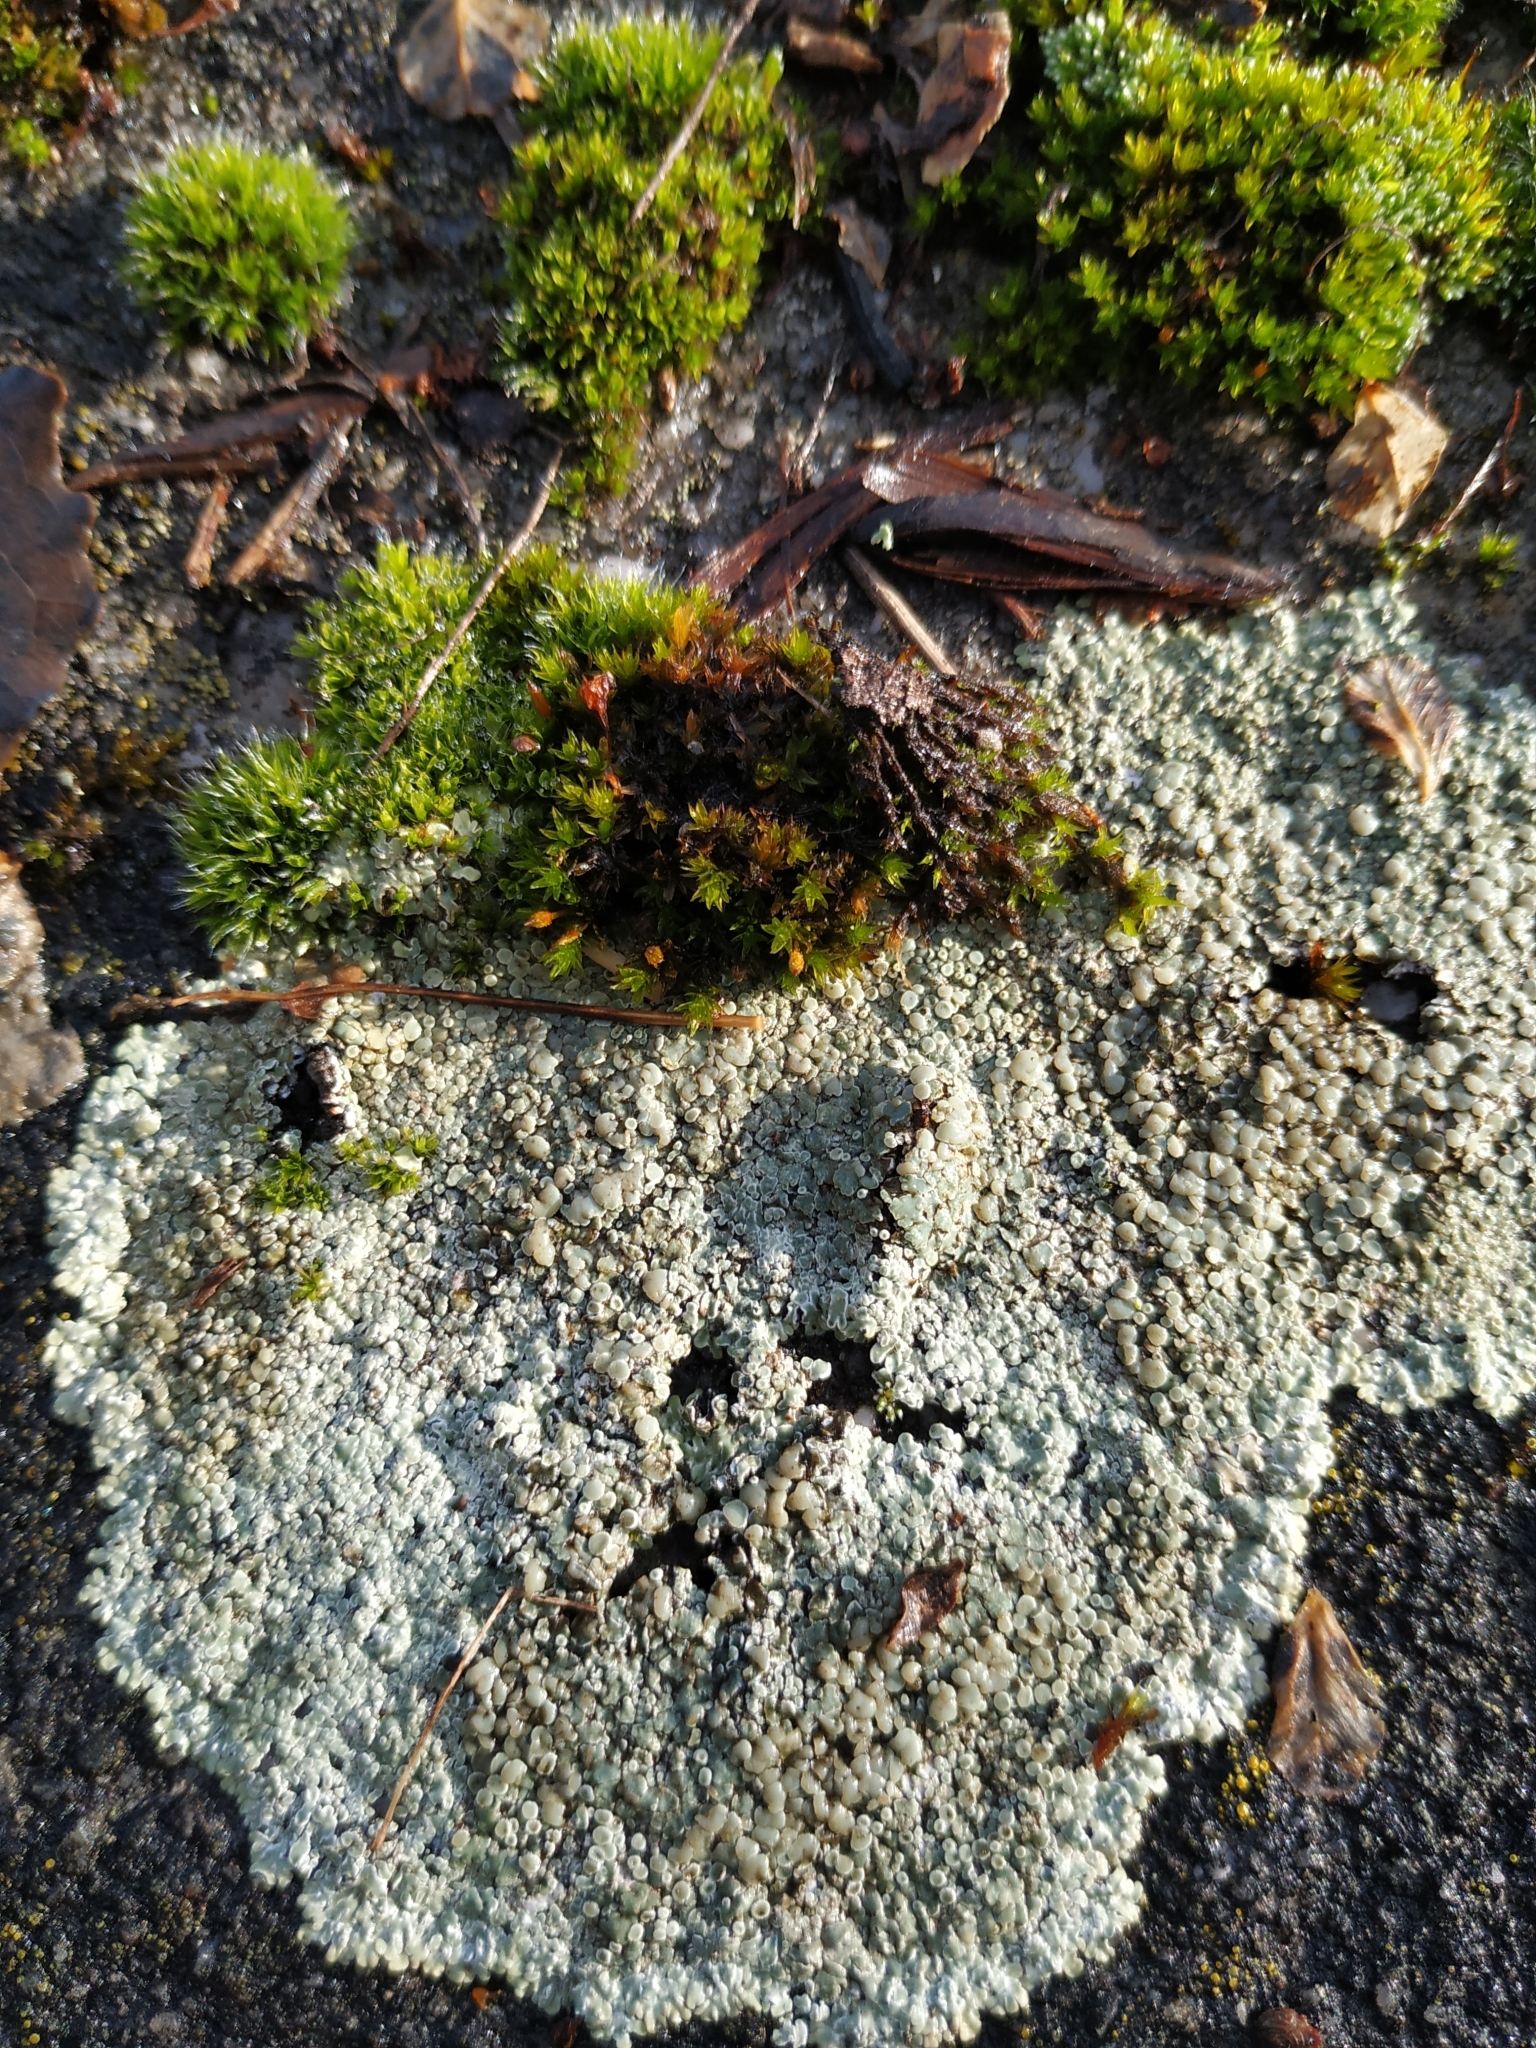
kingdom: Fungi
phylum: Ascomycota
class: Lecanoromycetes
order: Lecanorales
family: Lecanoraceae
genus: Protoparmeliopsis
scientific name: Protoparmeliopsis muralis
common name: Stonewall rim lichen
